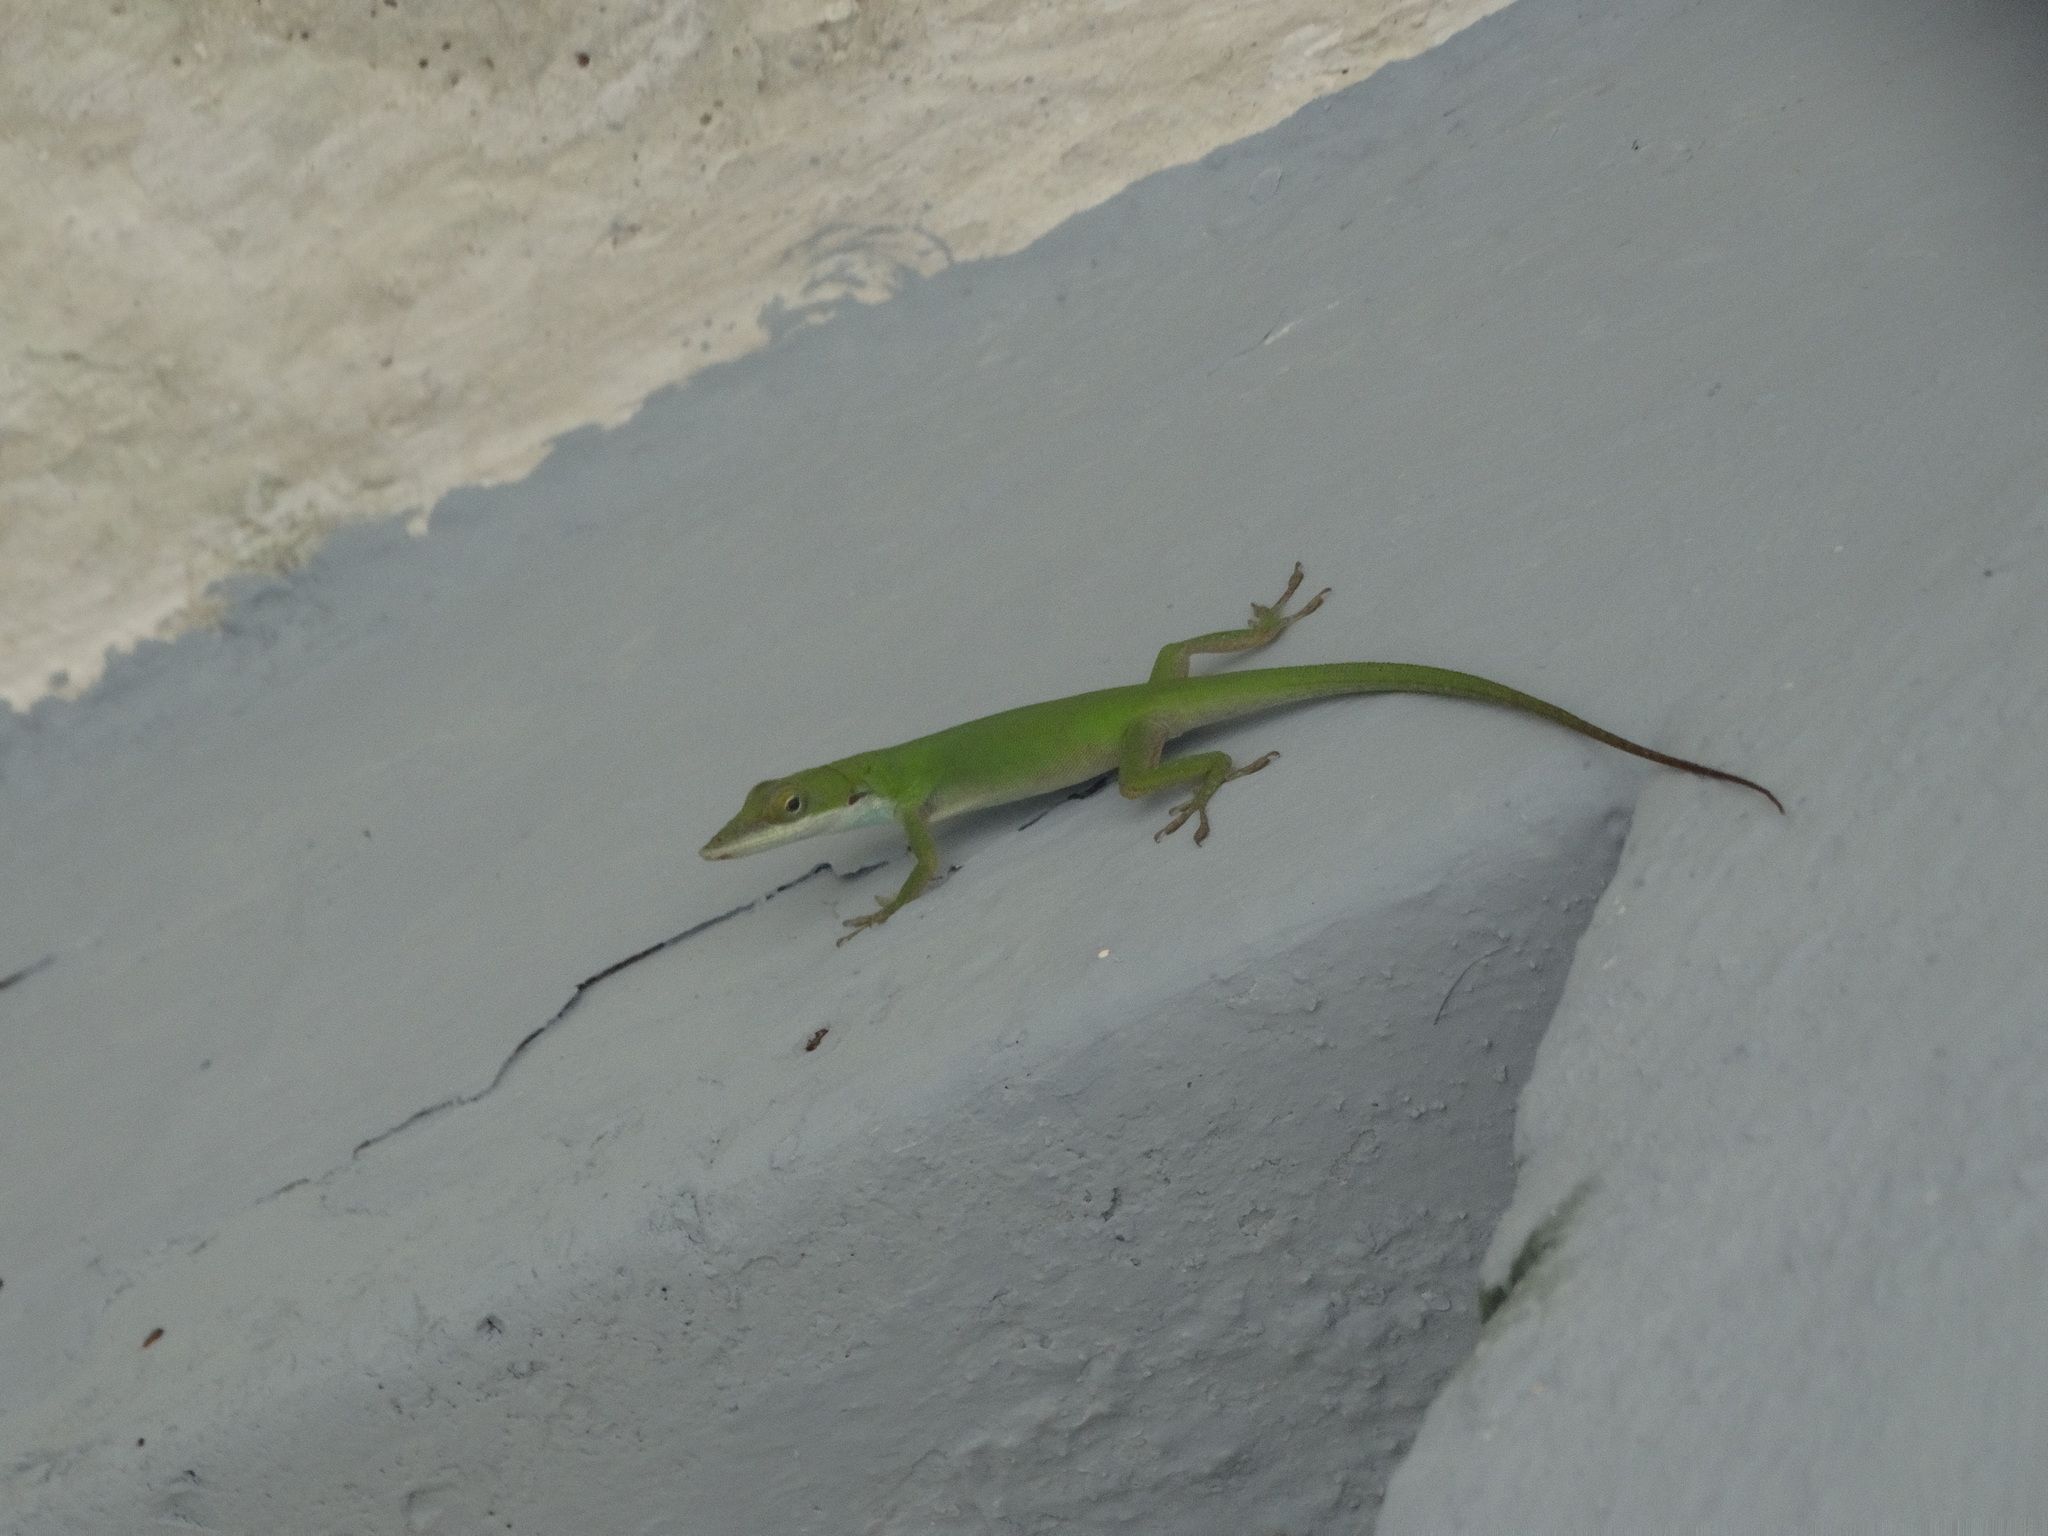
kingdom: Animalia
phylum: Chordata
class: Squamata
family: Dactyloidae
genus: Anolis
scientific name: Anolis porcatus
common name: Cuban green anole
